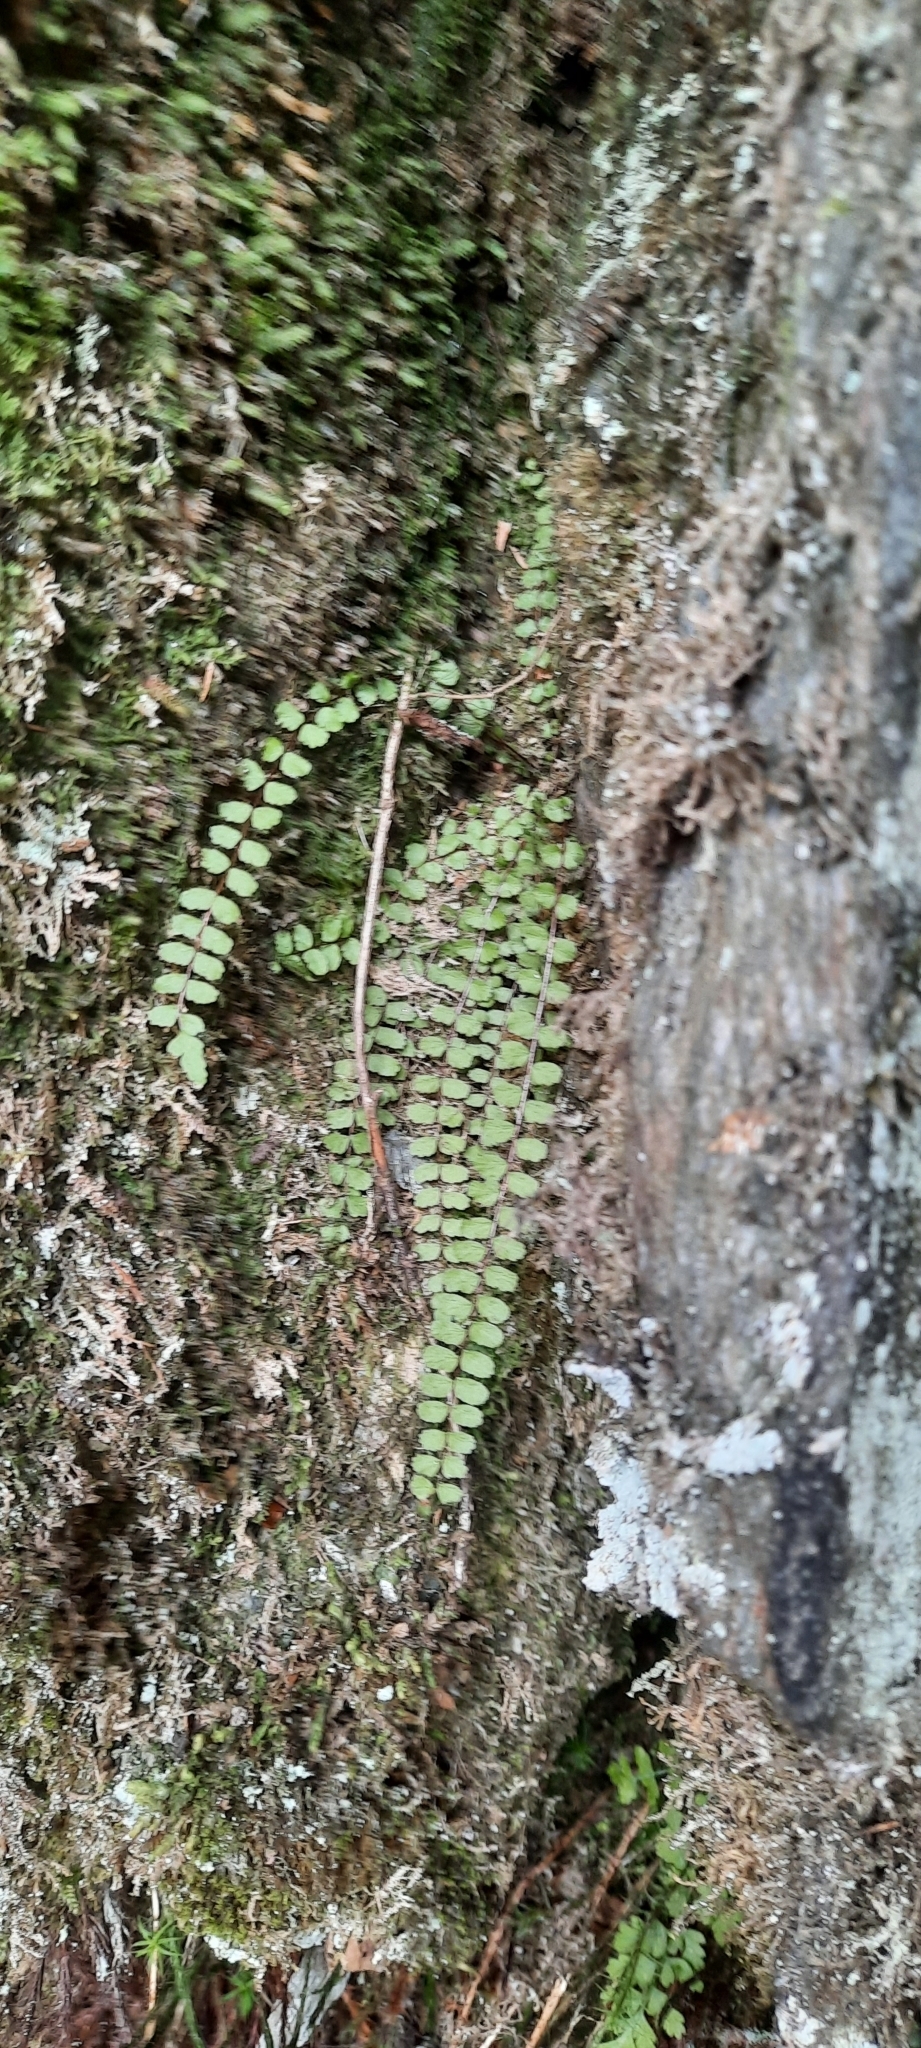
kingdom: Plantae
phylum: Tracheophyta
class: Polypodiopsida
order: Polypodiales
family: Aspleniaceae
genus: Asplenium
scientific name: Asplenium trichomanes
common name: Maidenhair spleenwort
